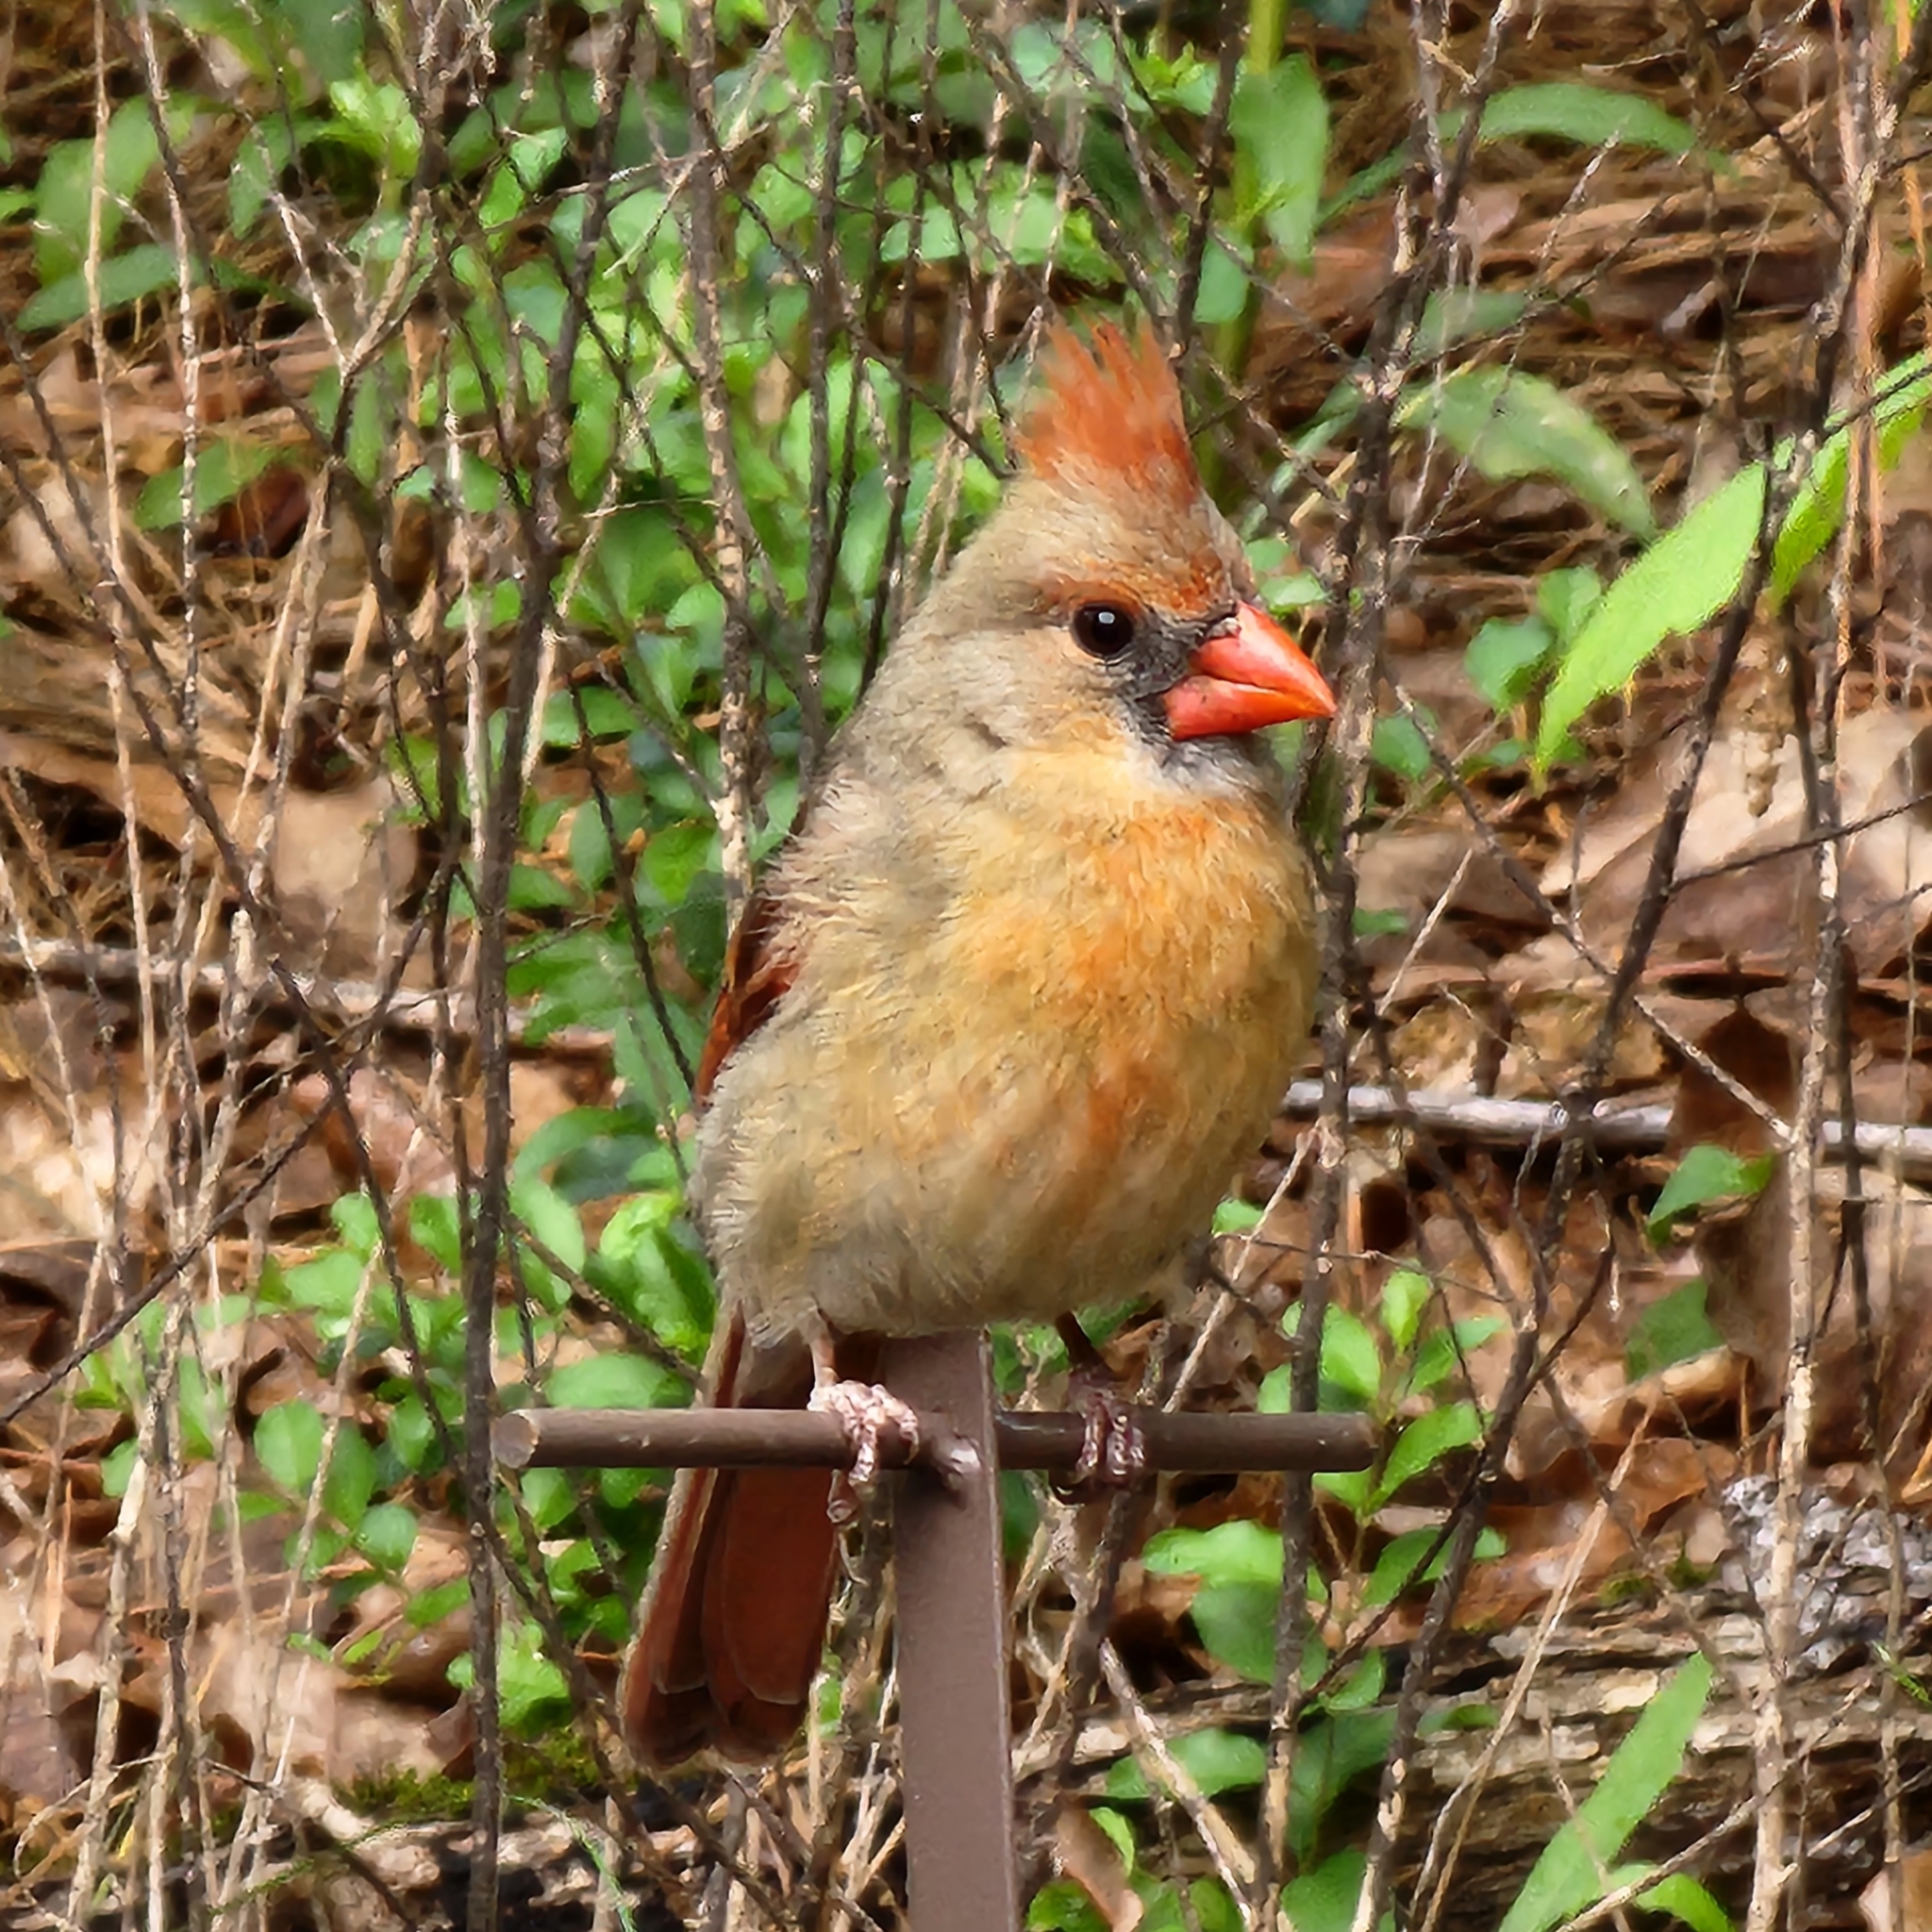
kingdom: Animalia
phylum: Chordata
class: Aves
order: Passeriformes
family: Cardinalidae
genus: Cardinalis
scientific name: Cardinalis cardinalis
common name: Northern cardinal
